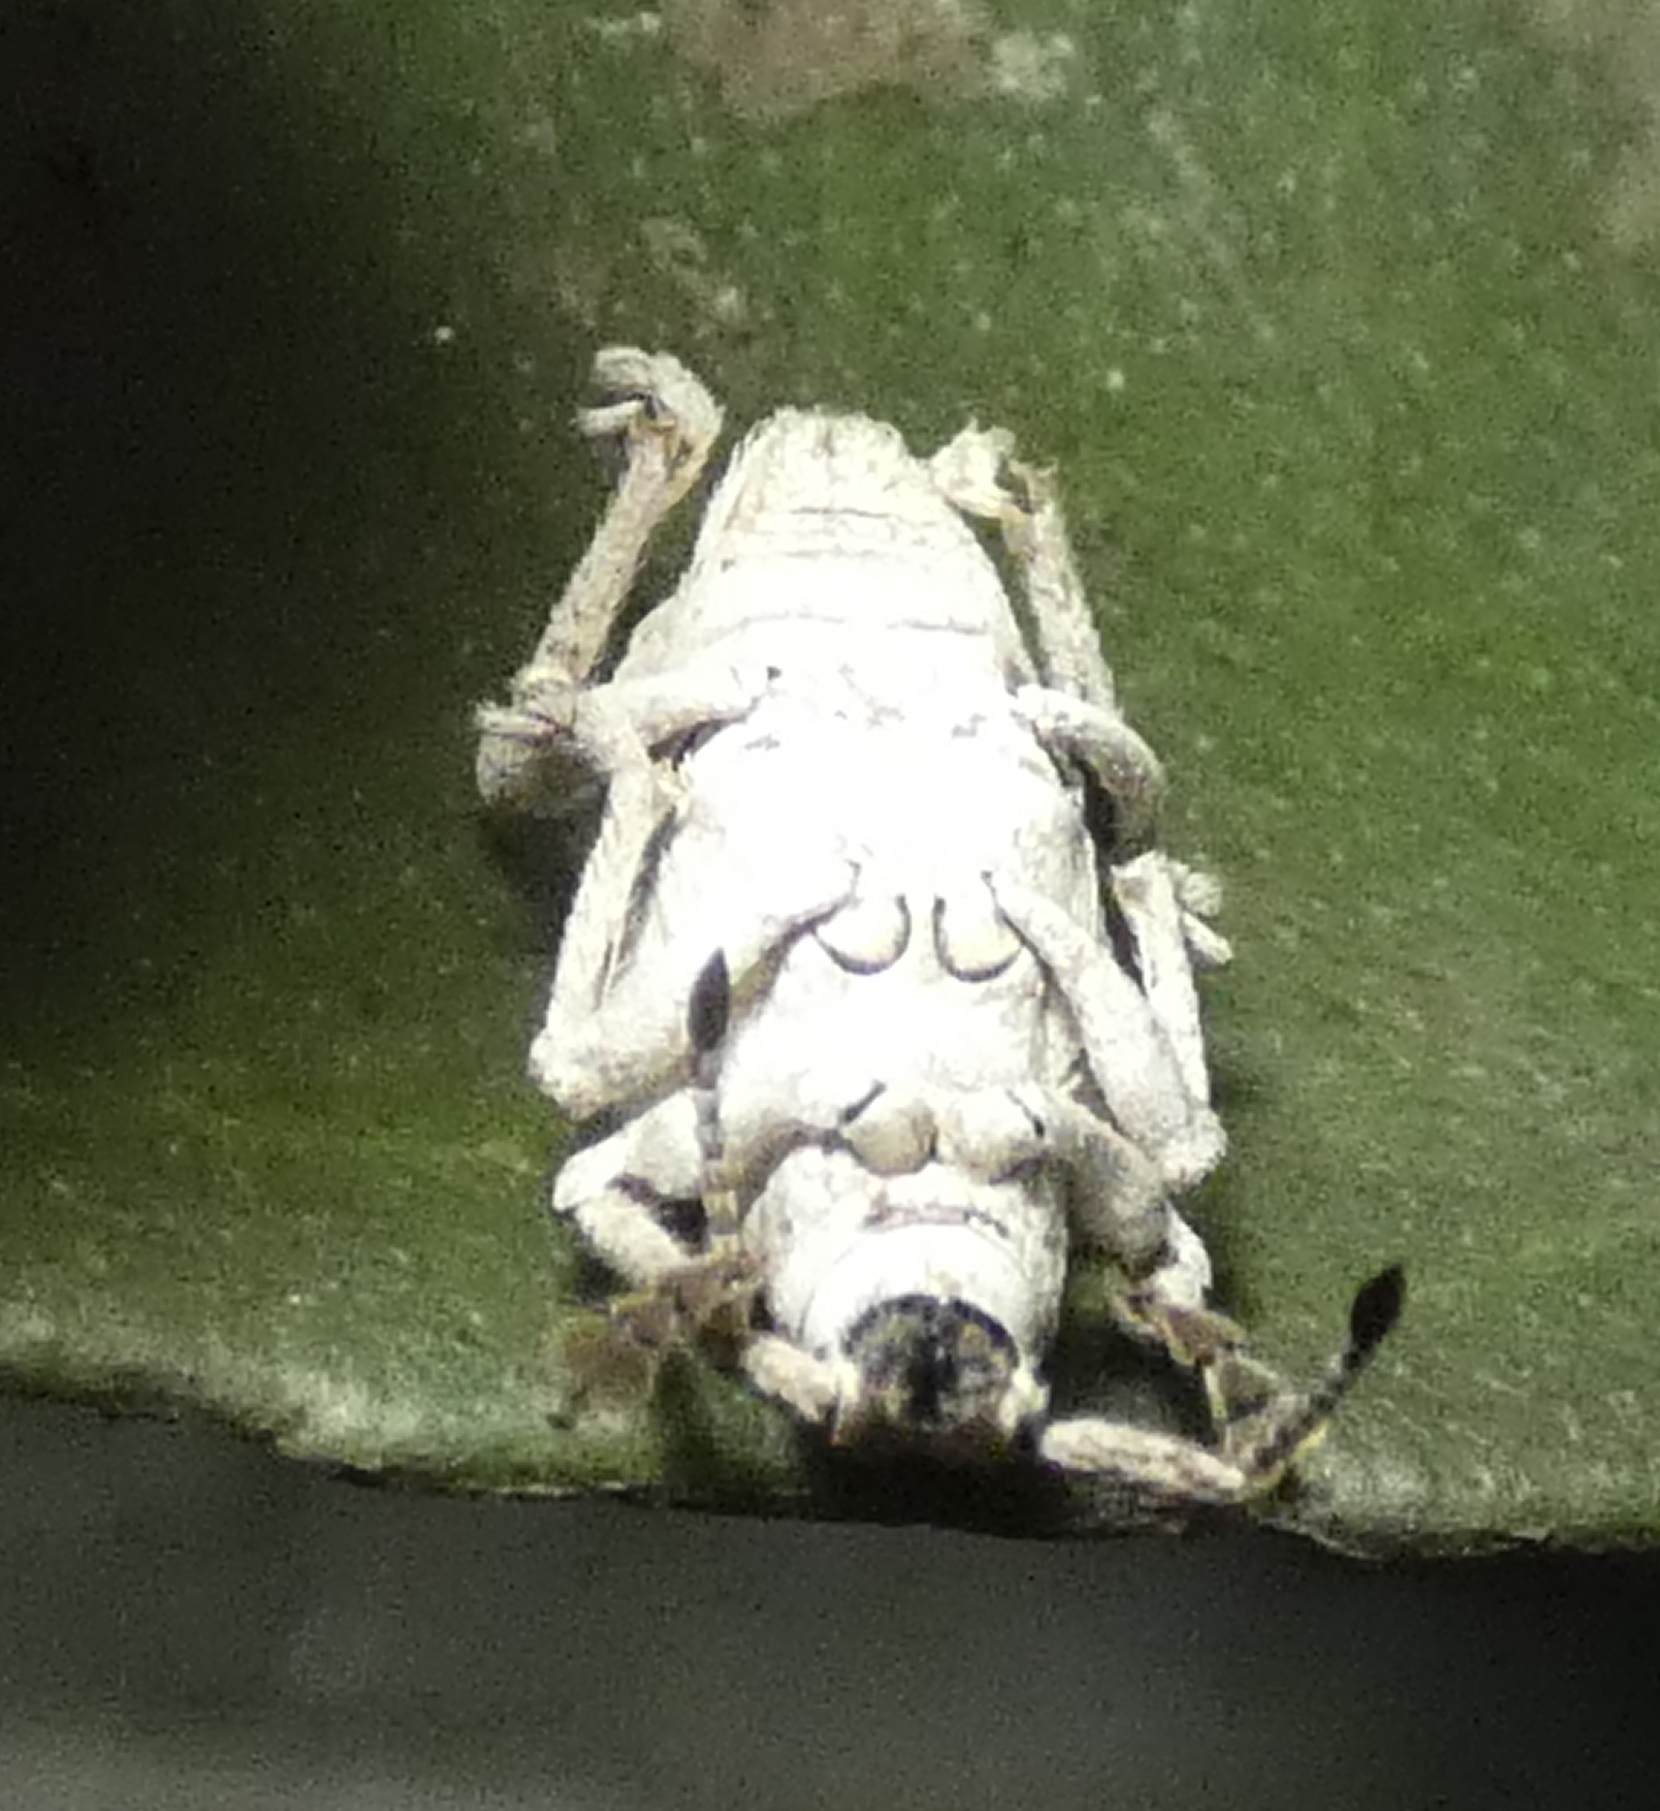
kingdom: Animalia
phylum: Arthropoda
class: Insecta
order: Coleoptera
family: Curculionidae
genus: Compsus
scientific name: Compsus niveus
